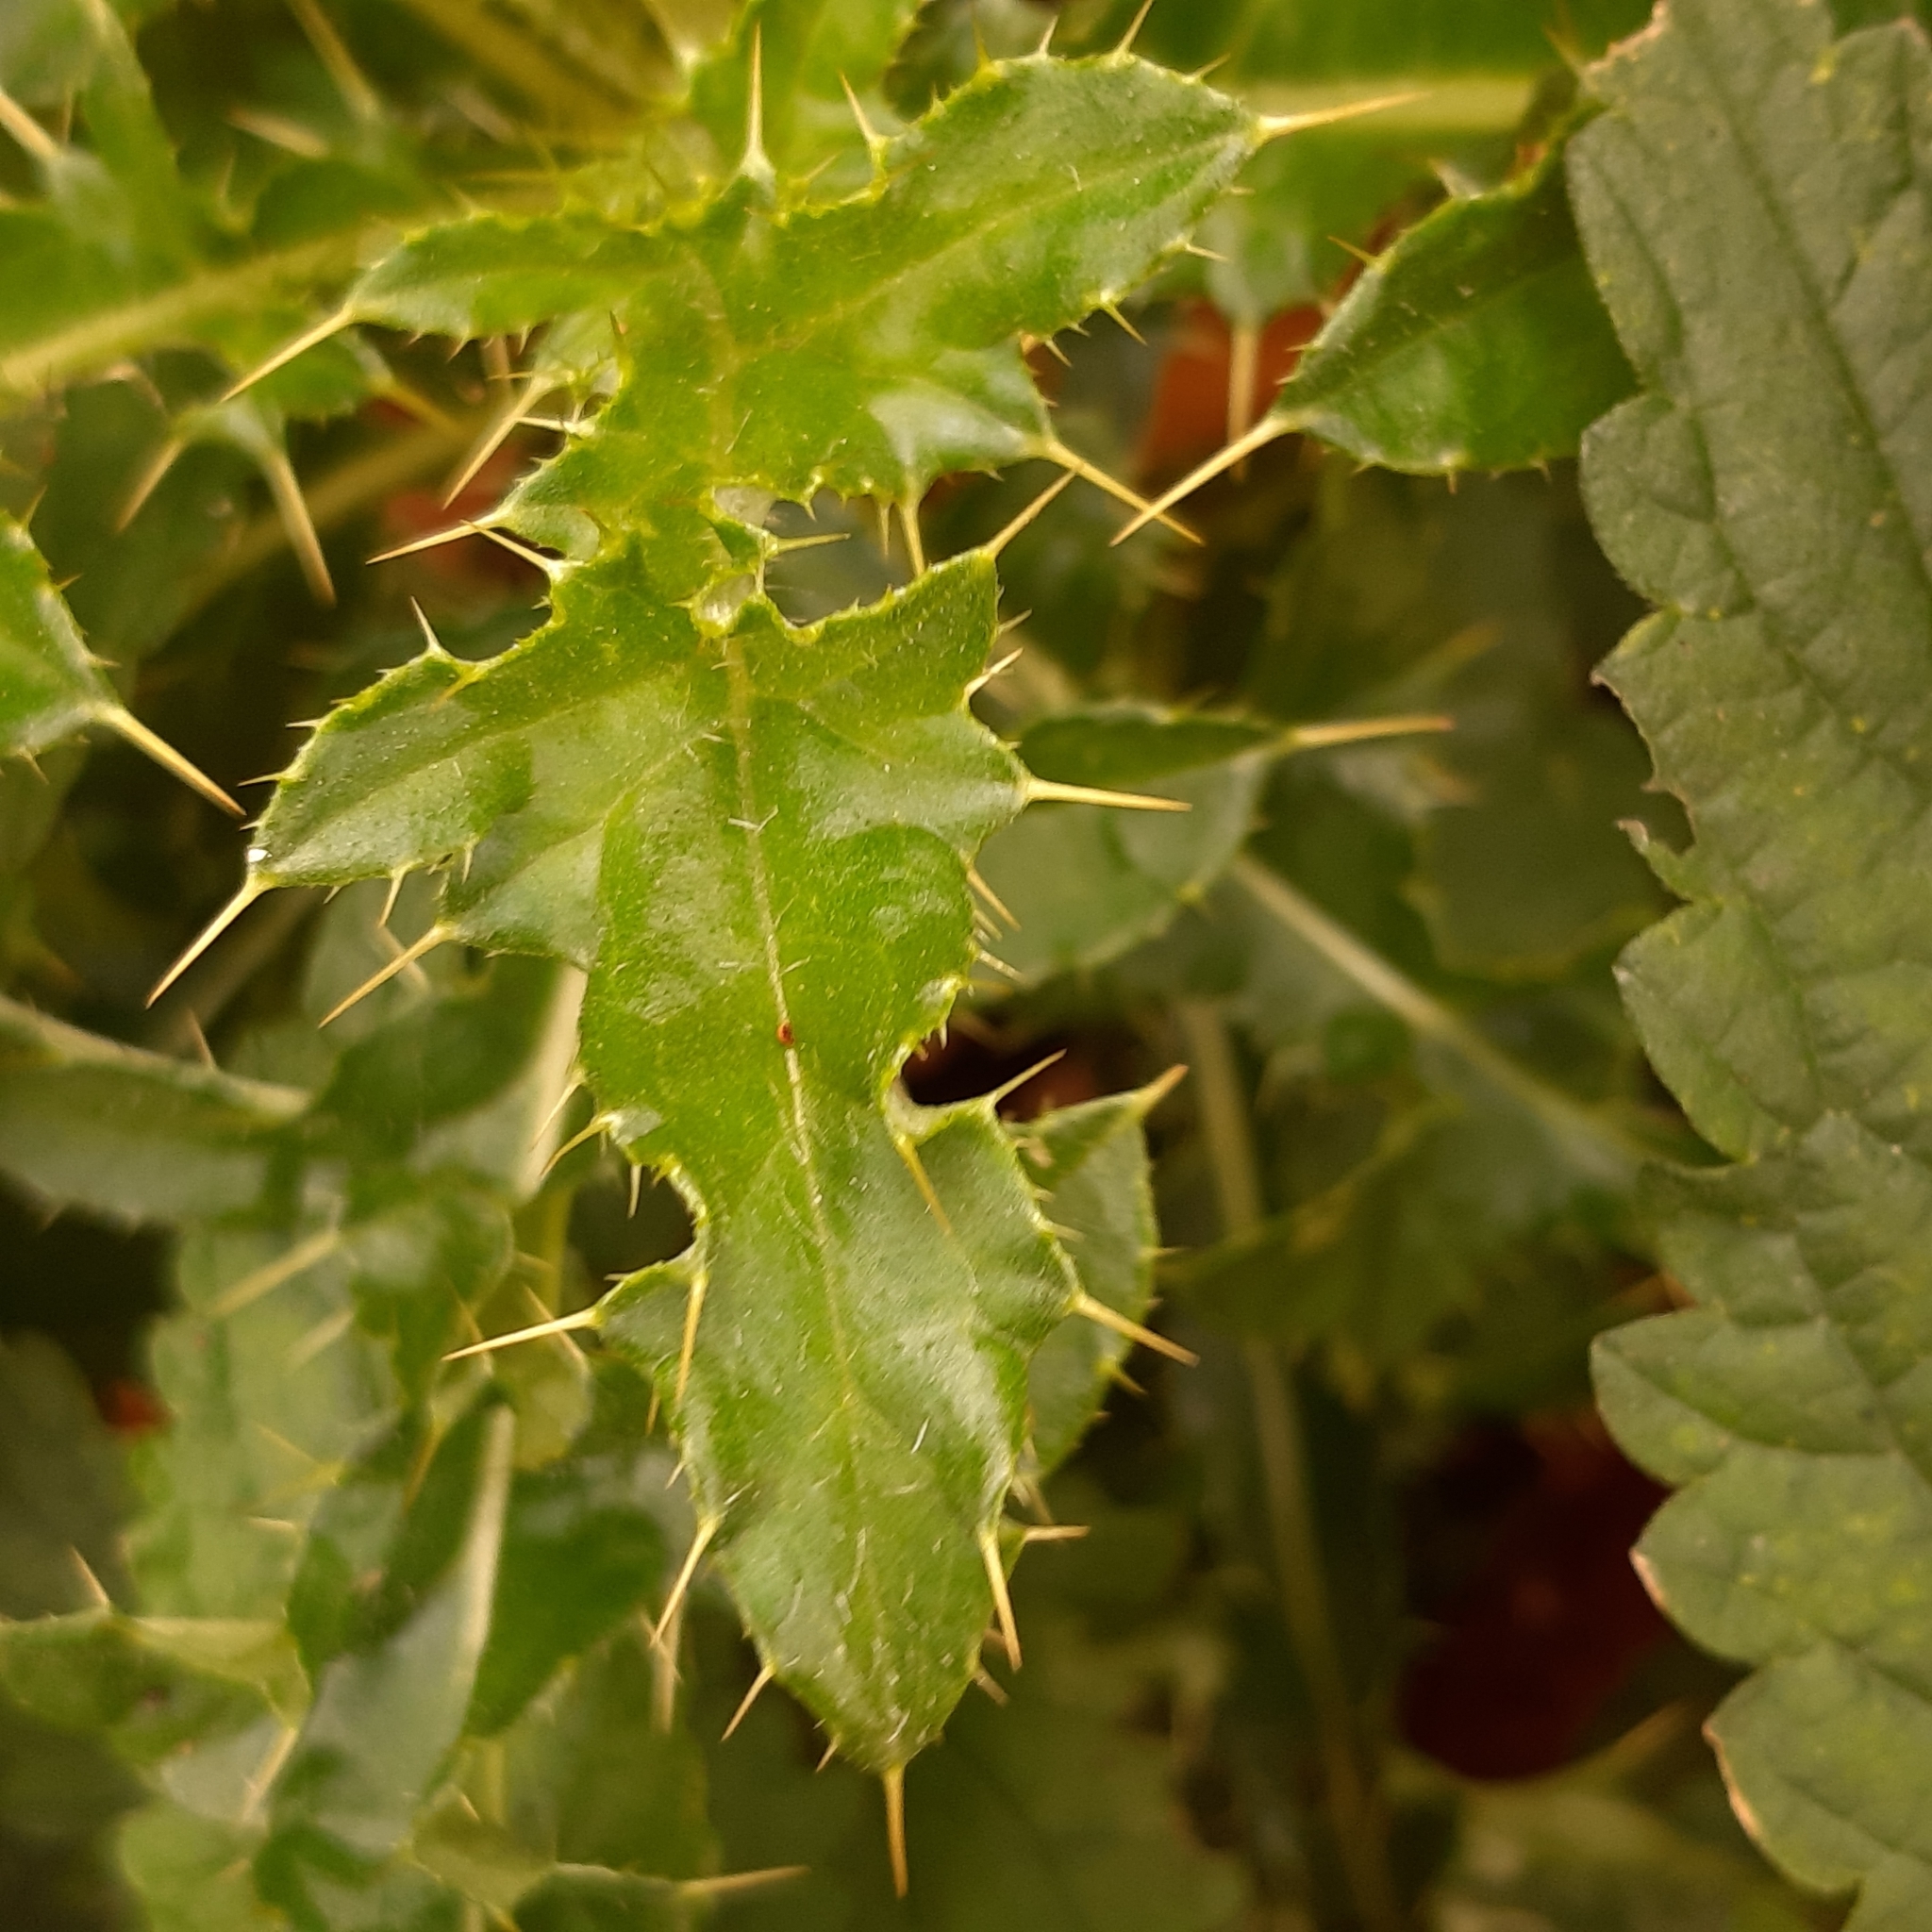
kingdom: Plantae
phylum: Tracheophyta
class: Magnoliopsida
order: Asterales
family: Asteraceae
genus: Cirsium
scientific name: Cirsium arvense
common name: Creeping thistle
